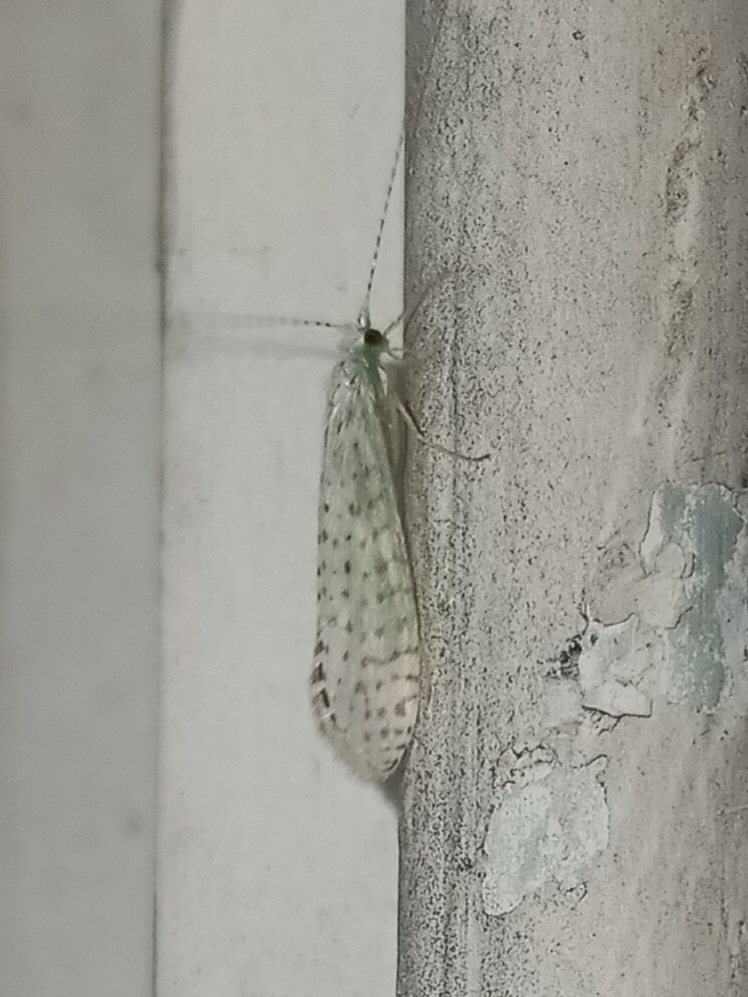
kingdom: Animalia
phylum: Arthropoda
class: Insecta
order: Trichoptera
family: Leptoceridae
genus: Nectopsyche
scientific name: Nectopsyche candida
